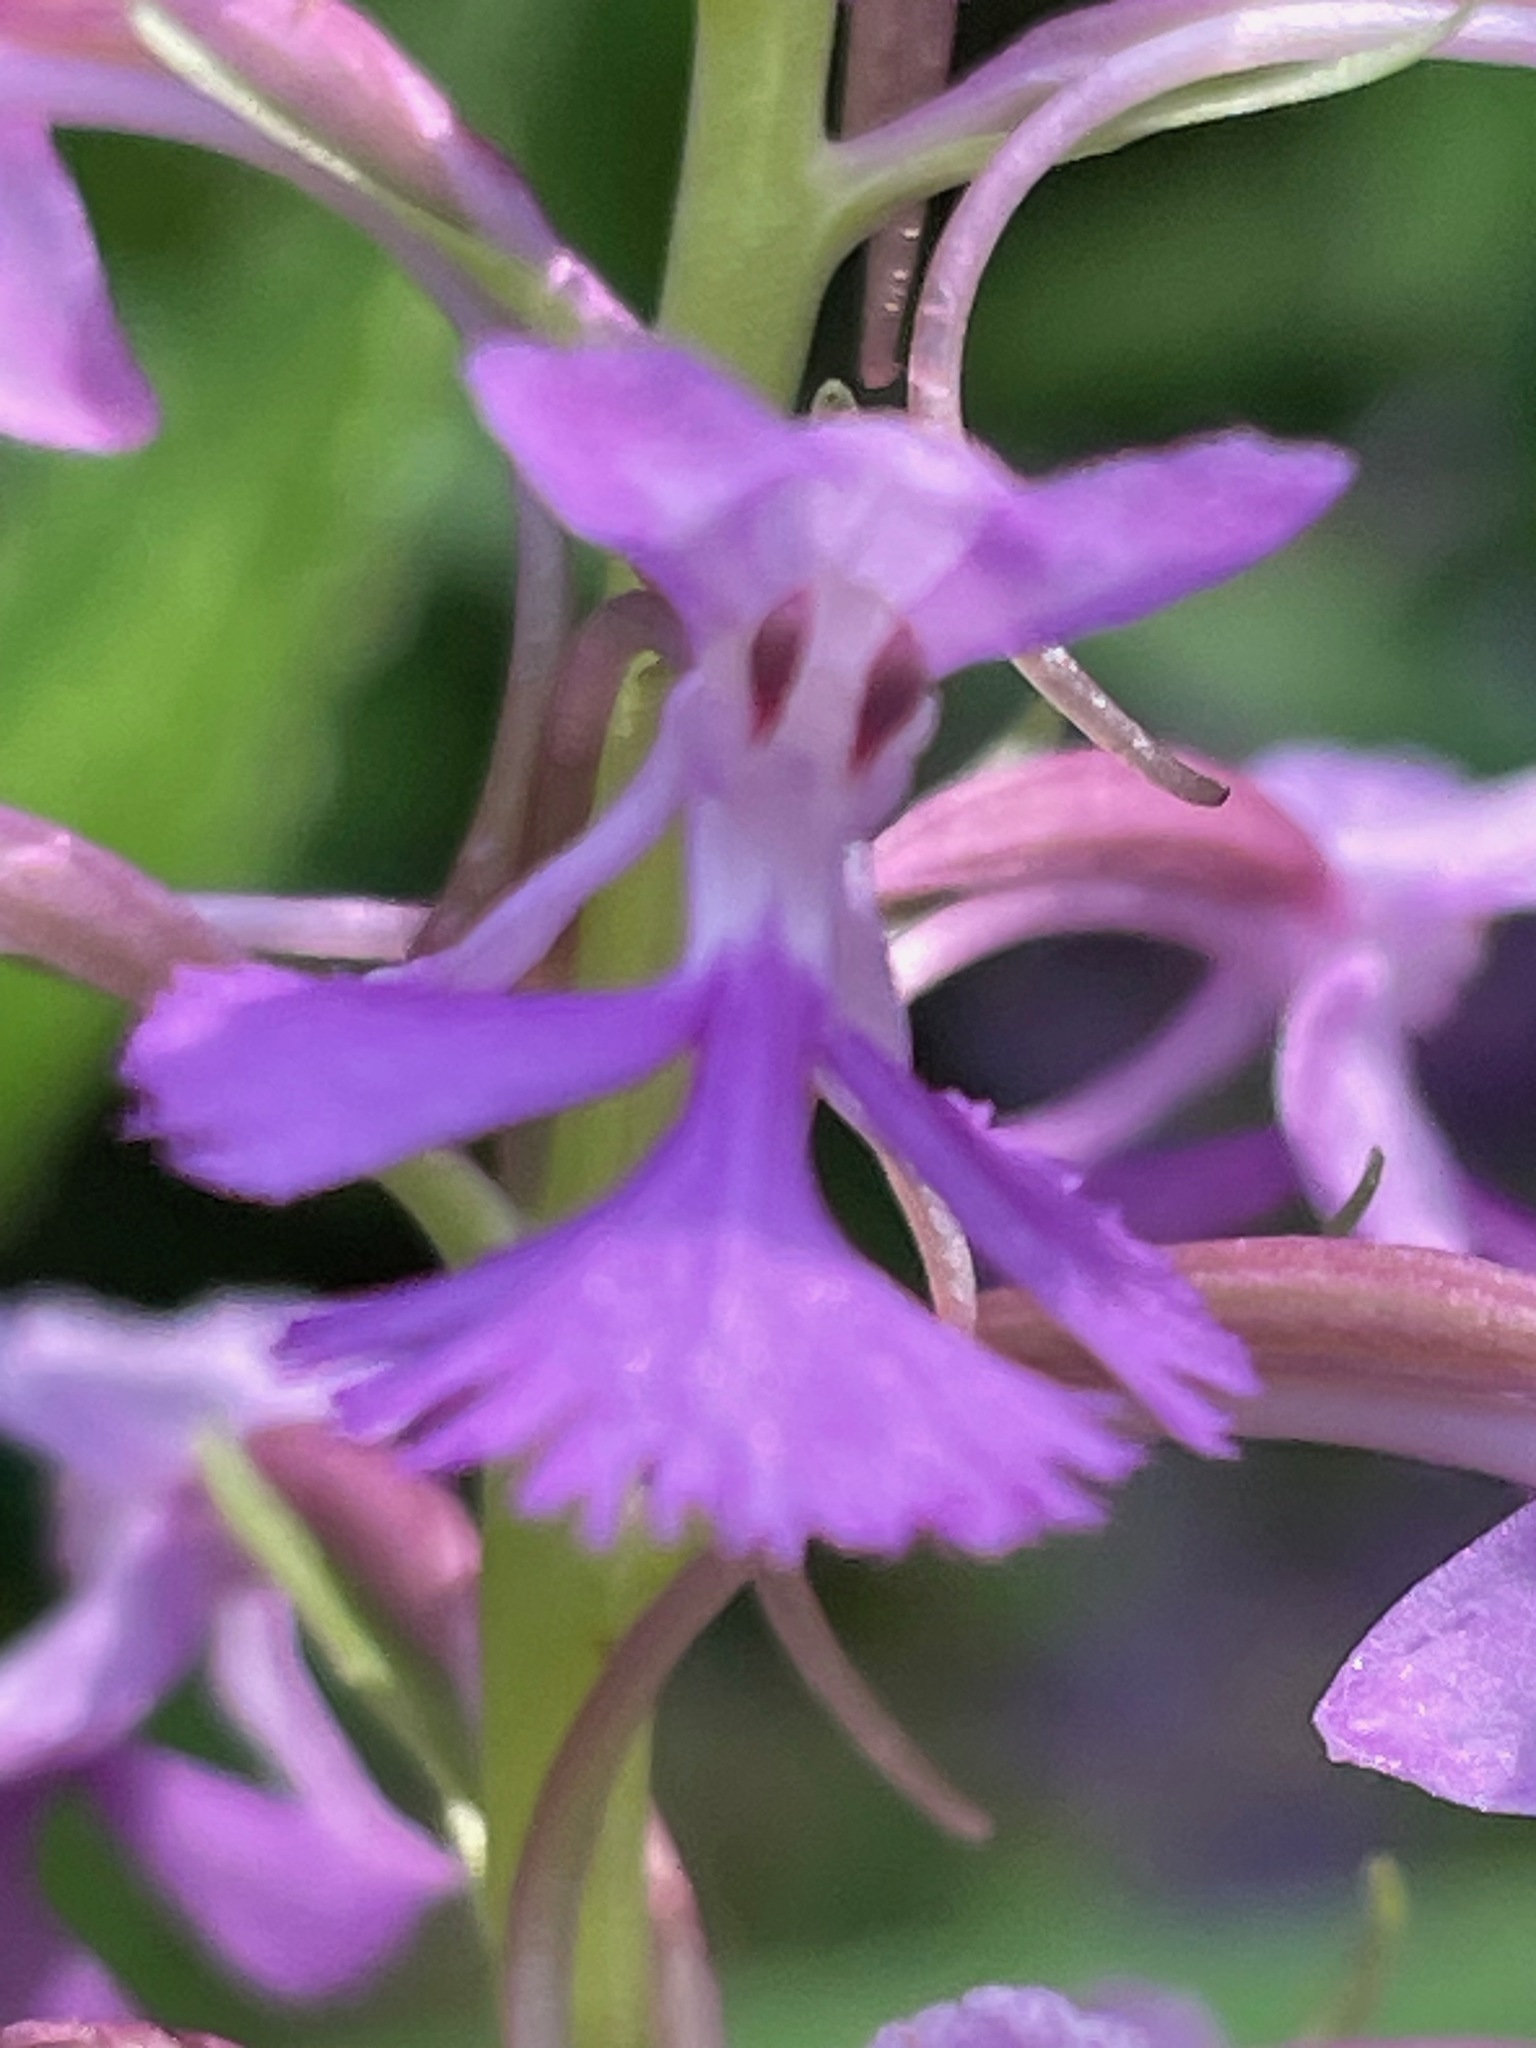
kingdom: Plantae
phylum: Tracheophyta
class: Liliopsida
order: Asparagales
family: Orchidaceae
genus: Platanthera
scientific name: Platanthera psycodes
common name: Lesser purple fringed orchid
